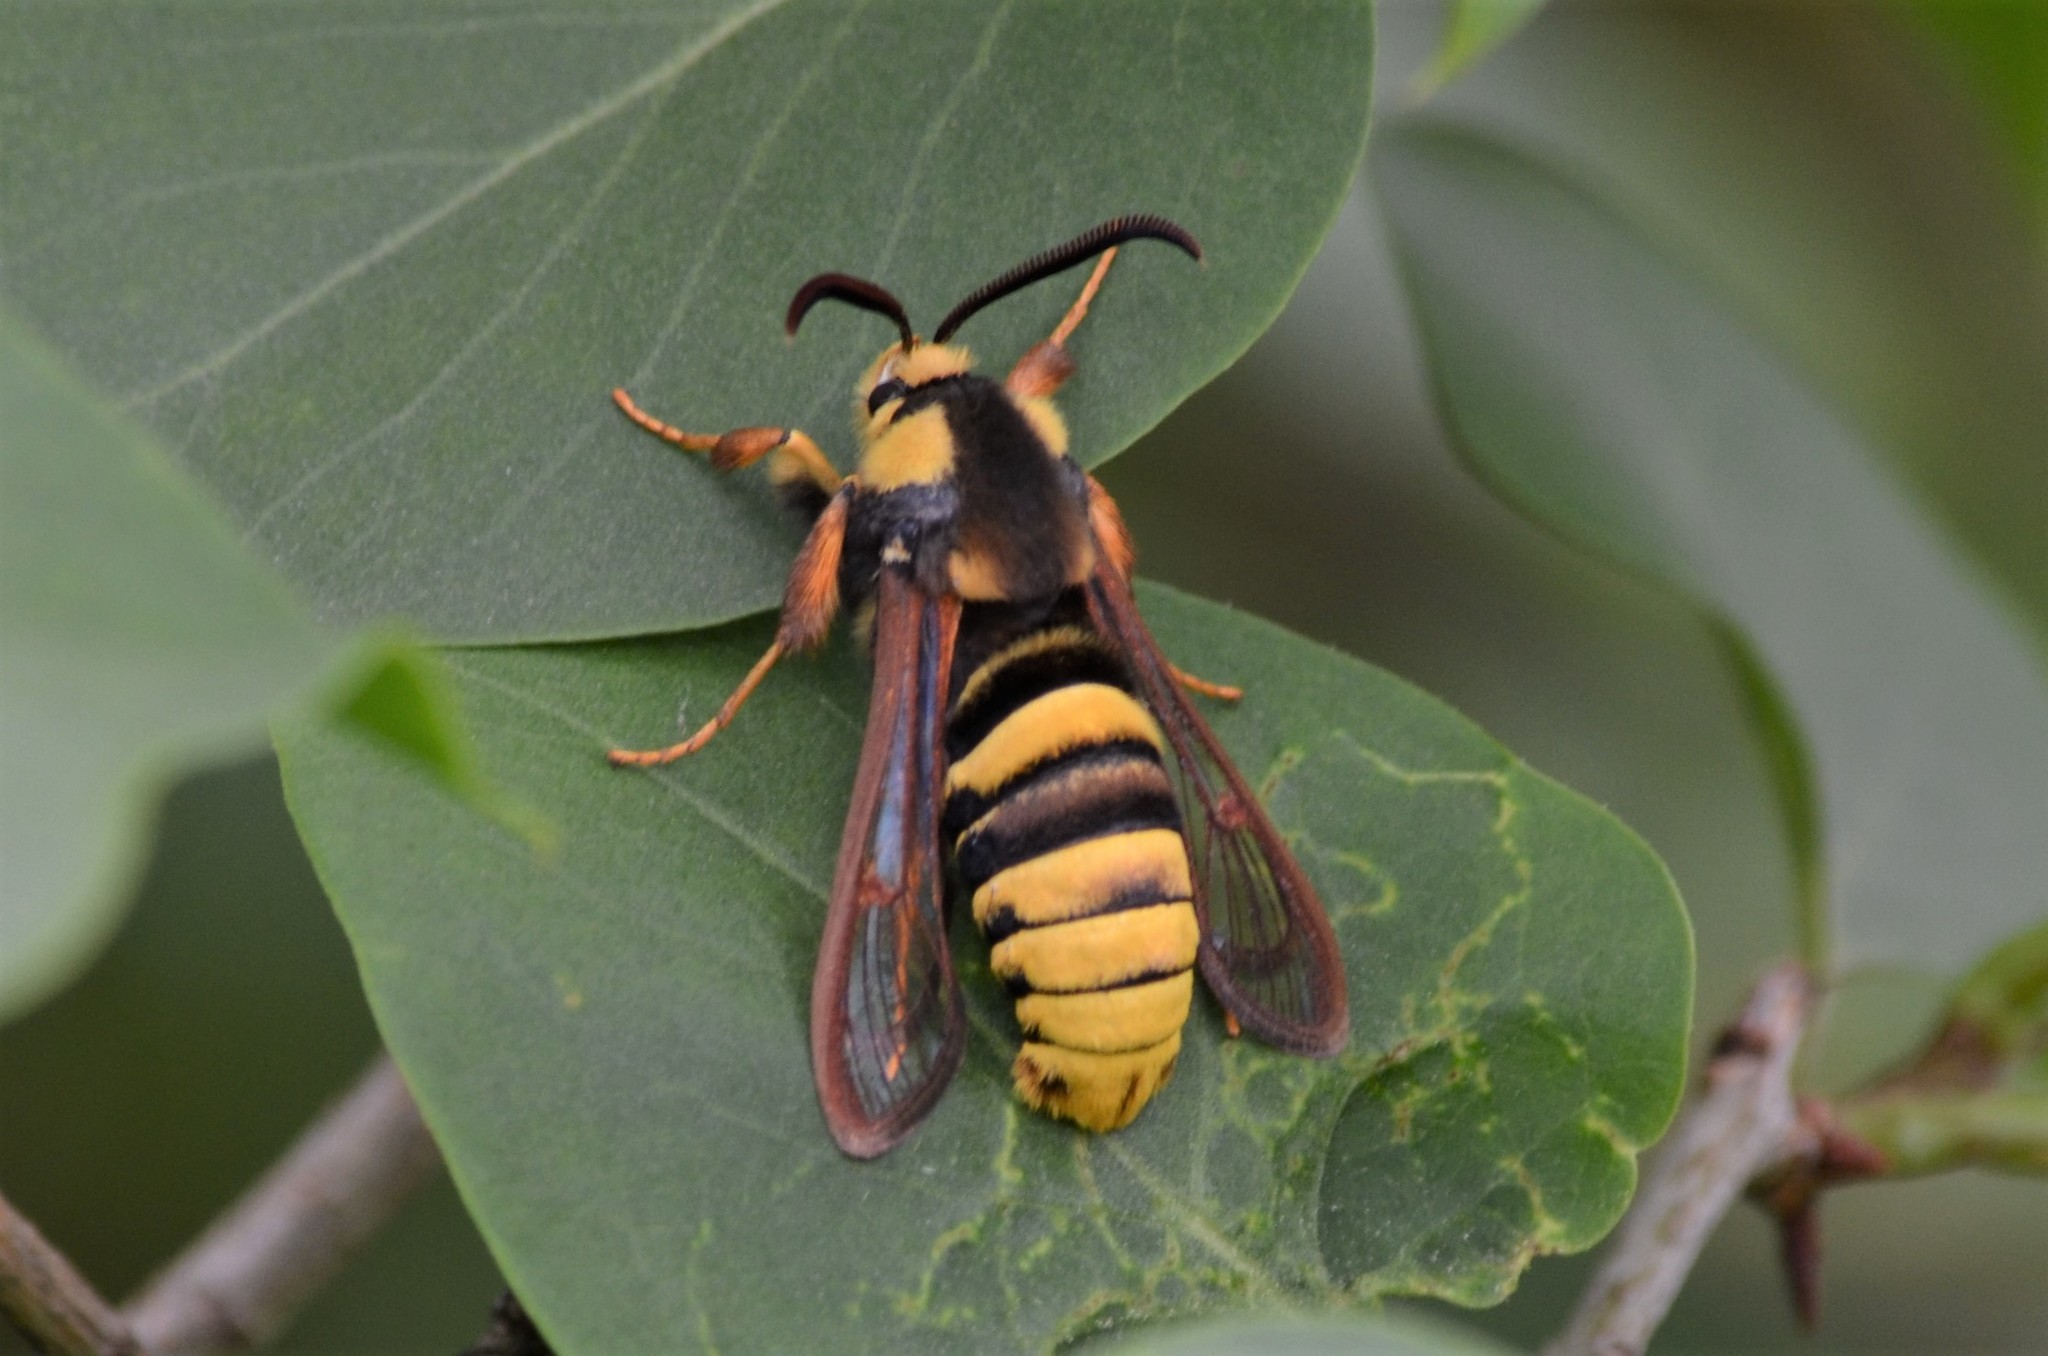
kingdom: Animalia
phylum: Arthropoda
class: Insecta
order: Lepidoptera
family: Sesiidae
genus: Sesia
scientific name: Sesia apiformis
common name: Hornet moth
